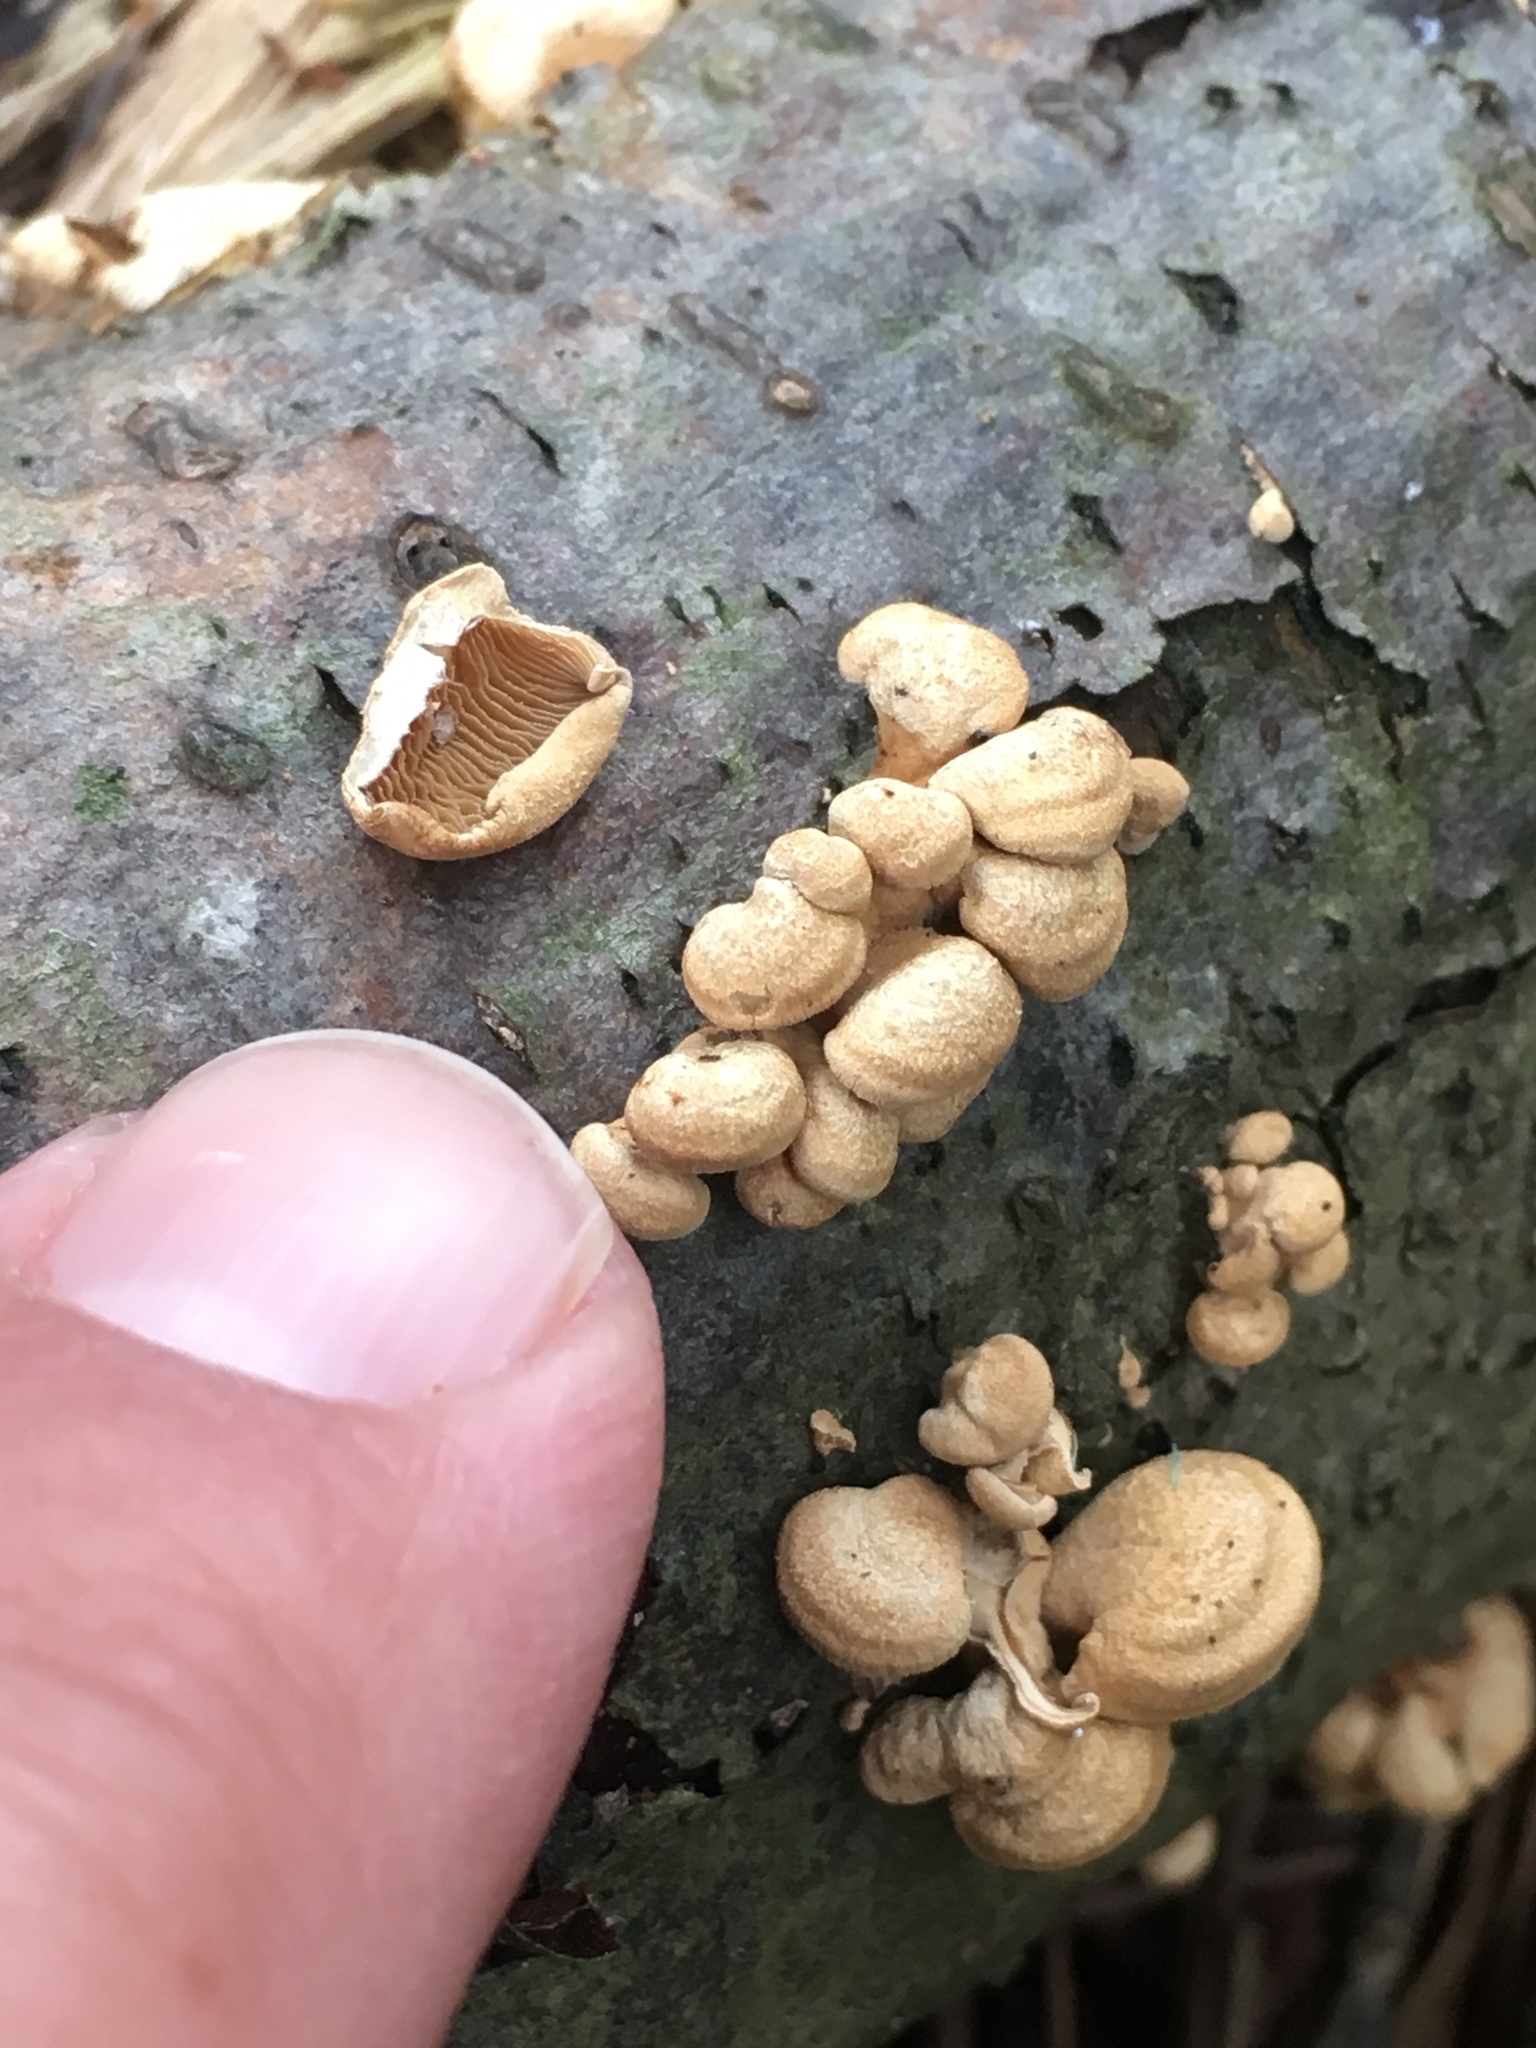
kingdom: Fungi
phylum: Basidiomycota
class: Agaricomycetes
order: Agaricales
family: Mycenaceae
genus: Panellus
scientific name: Panellus stipticus
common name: Bitter oysterling
